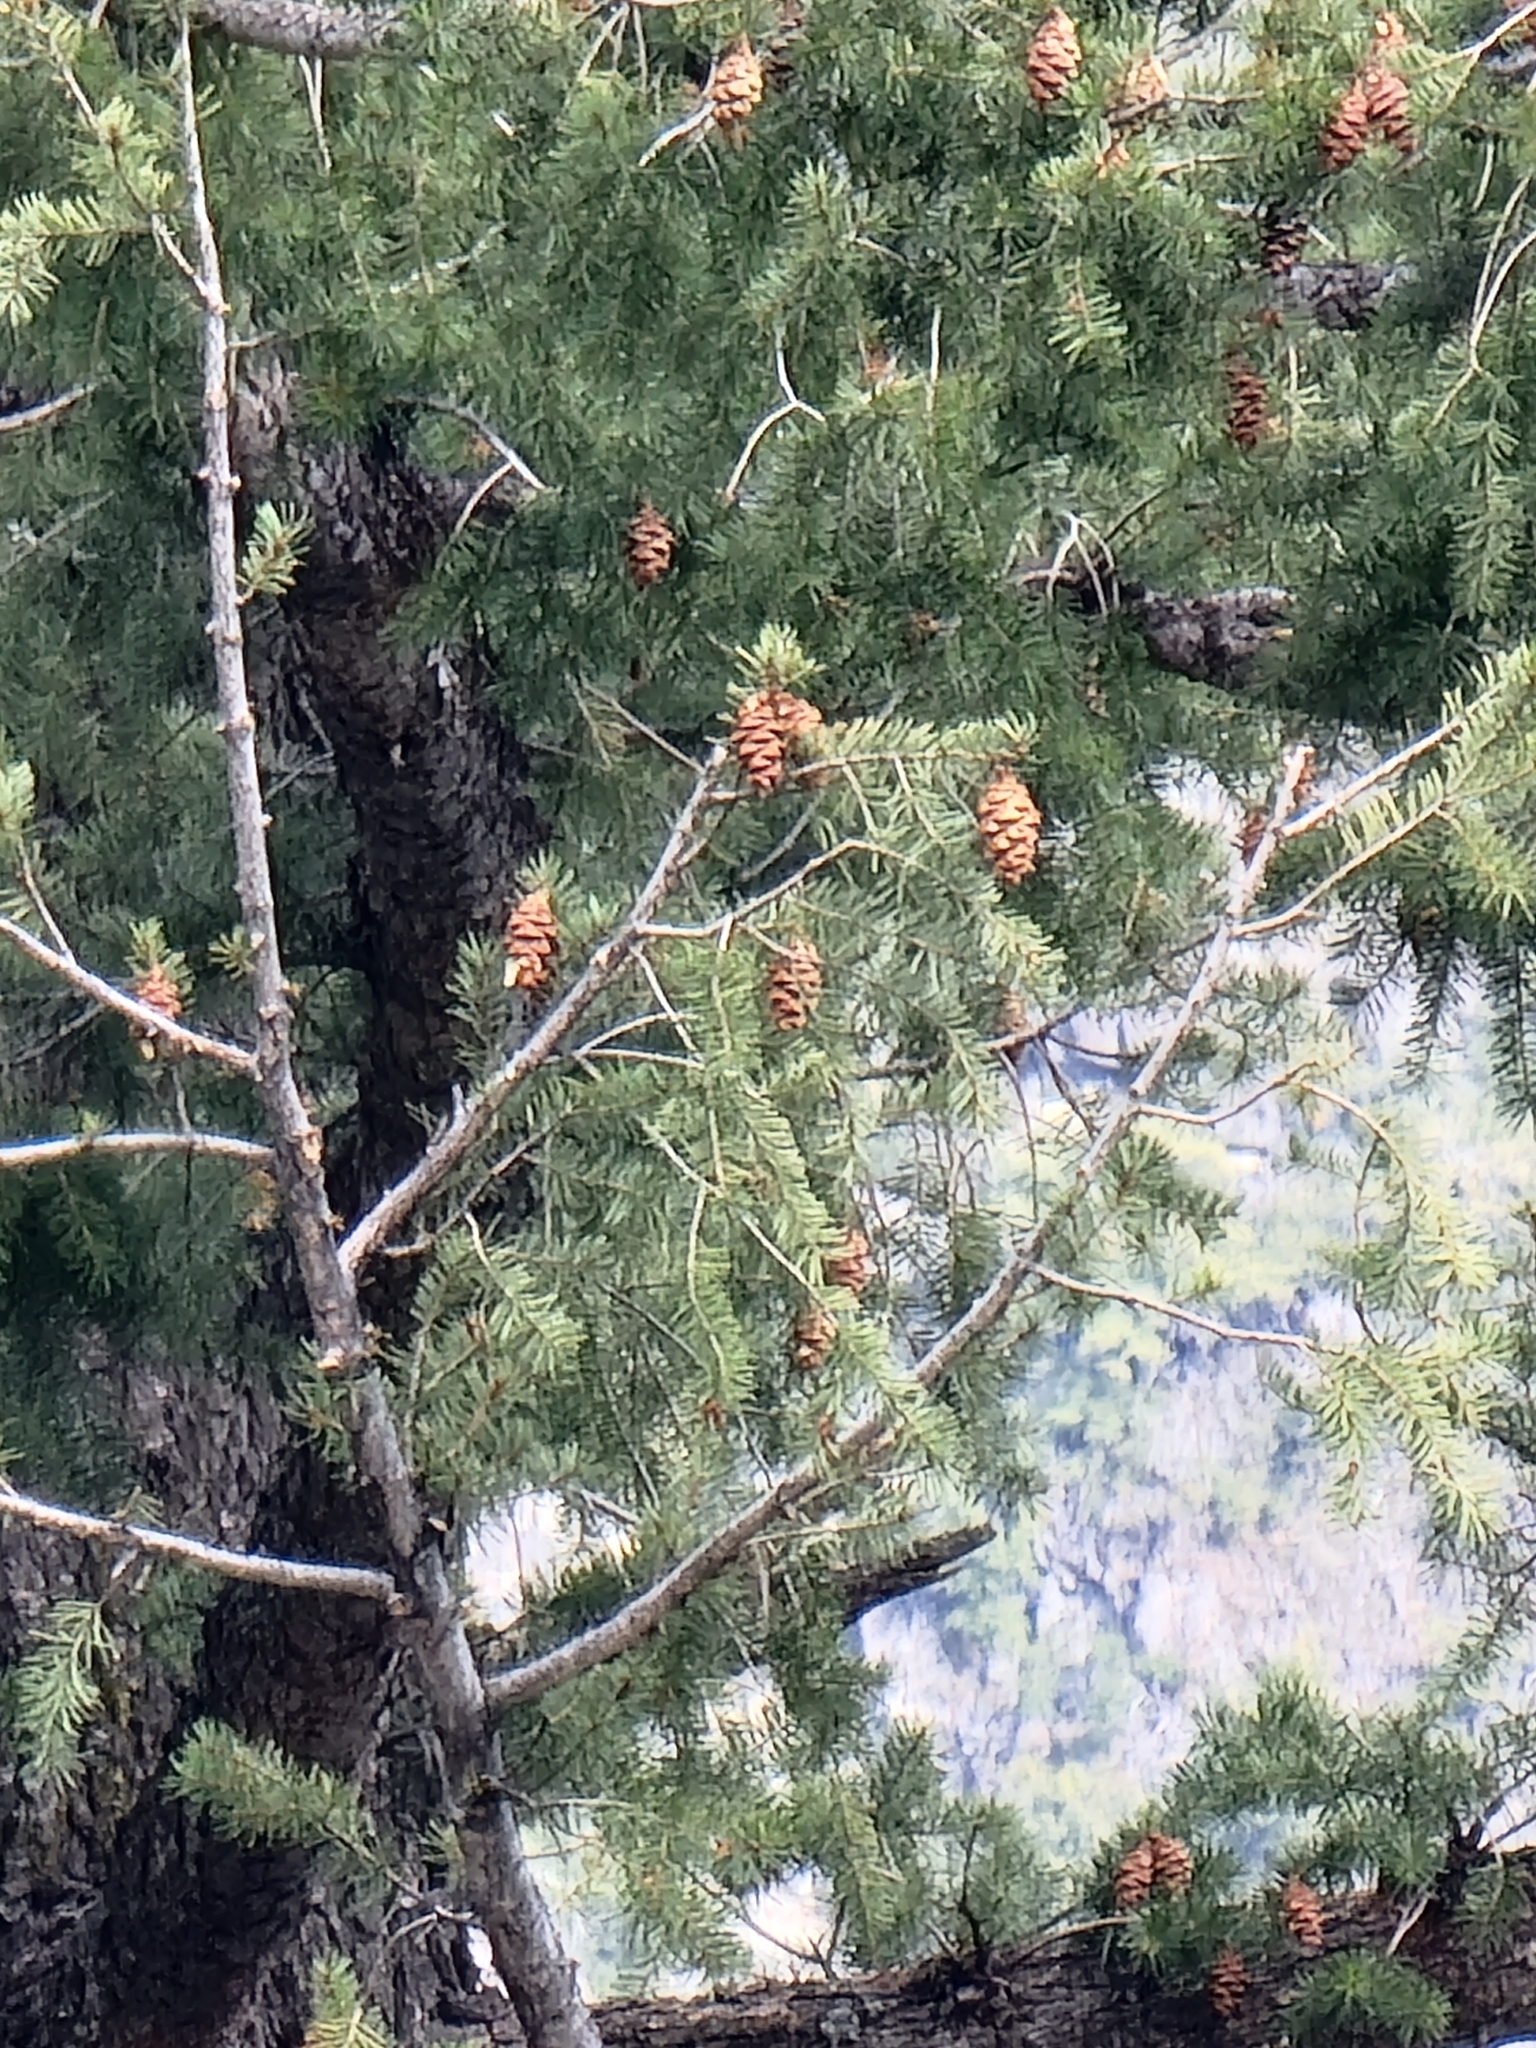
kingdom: Plantae
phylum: Tracheophyta
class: Pinopsida
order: Pinales
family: Pinaceae
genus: Pseudotsuga
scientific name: Pseudotsuga menziesii
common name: Douglas fir
